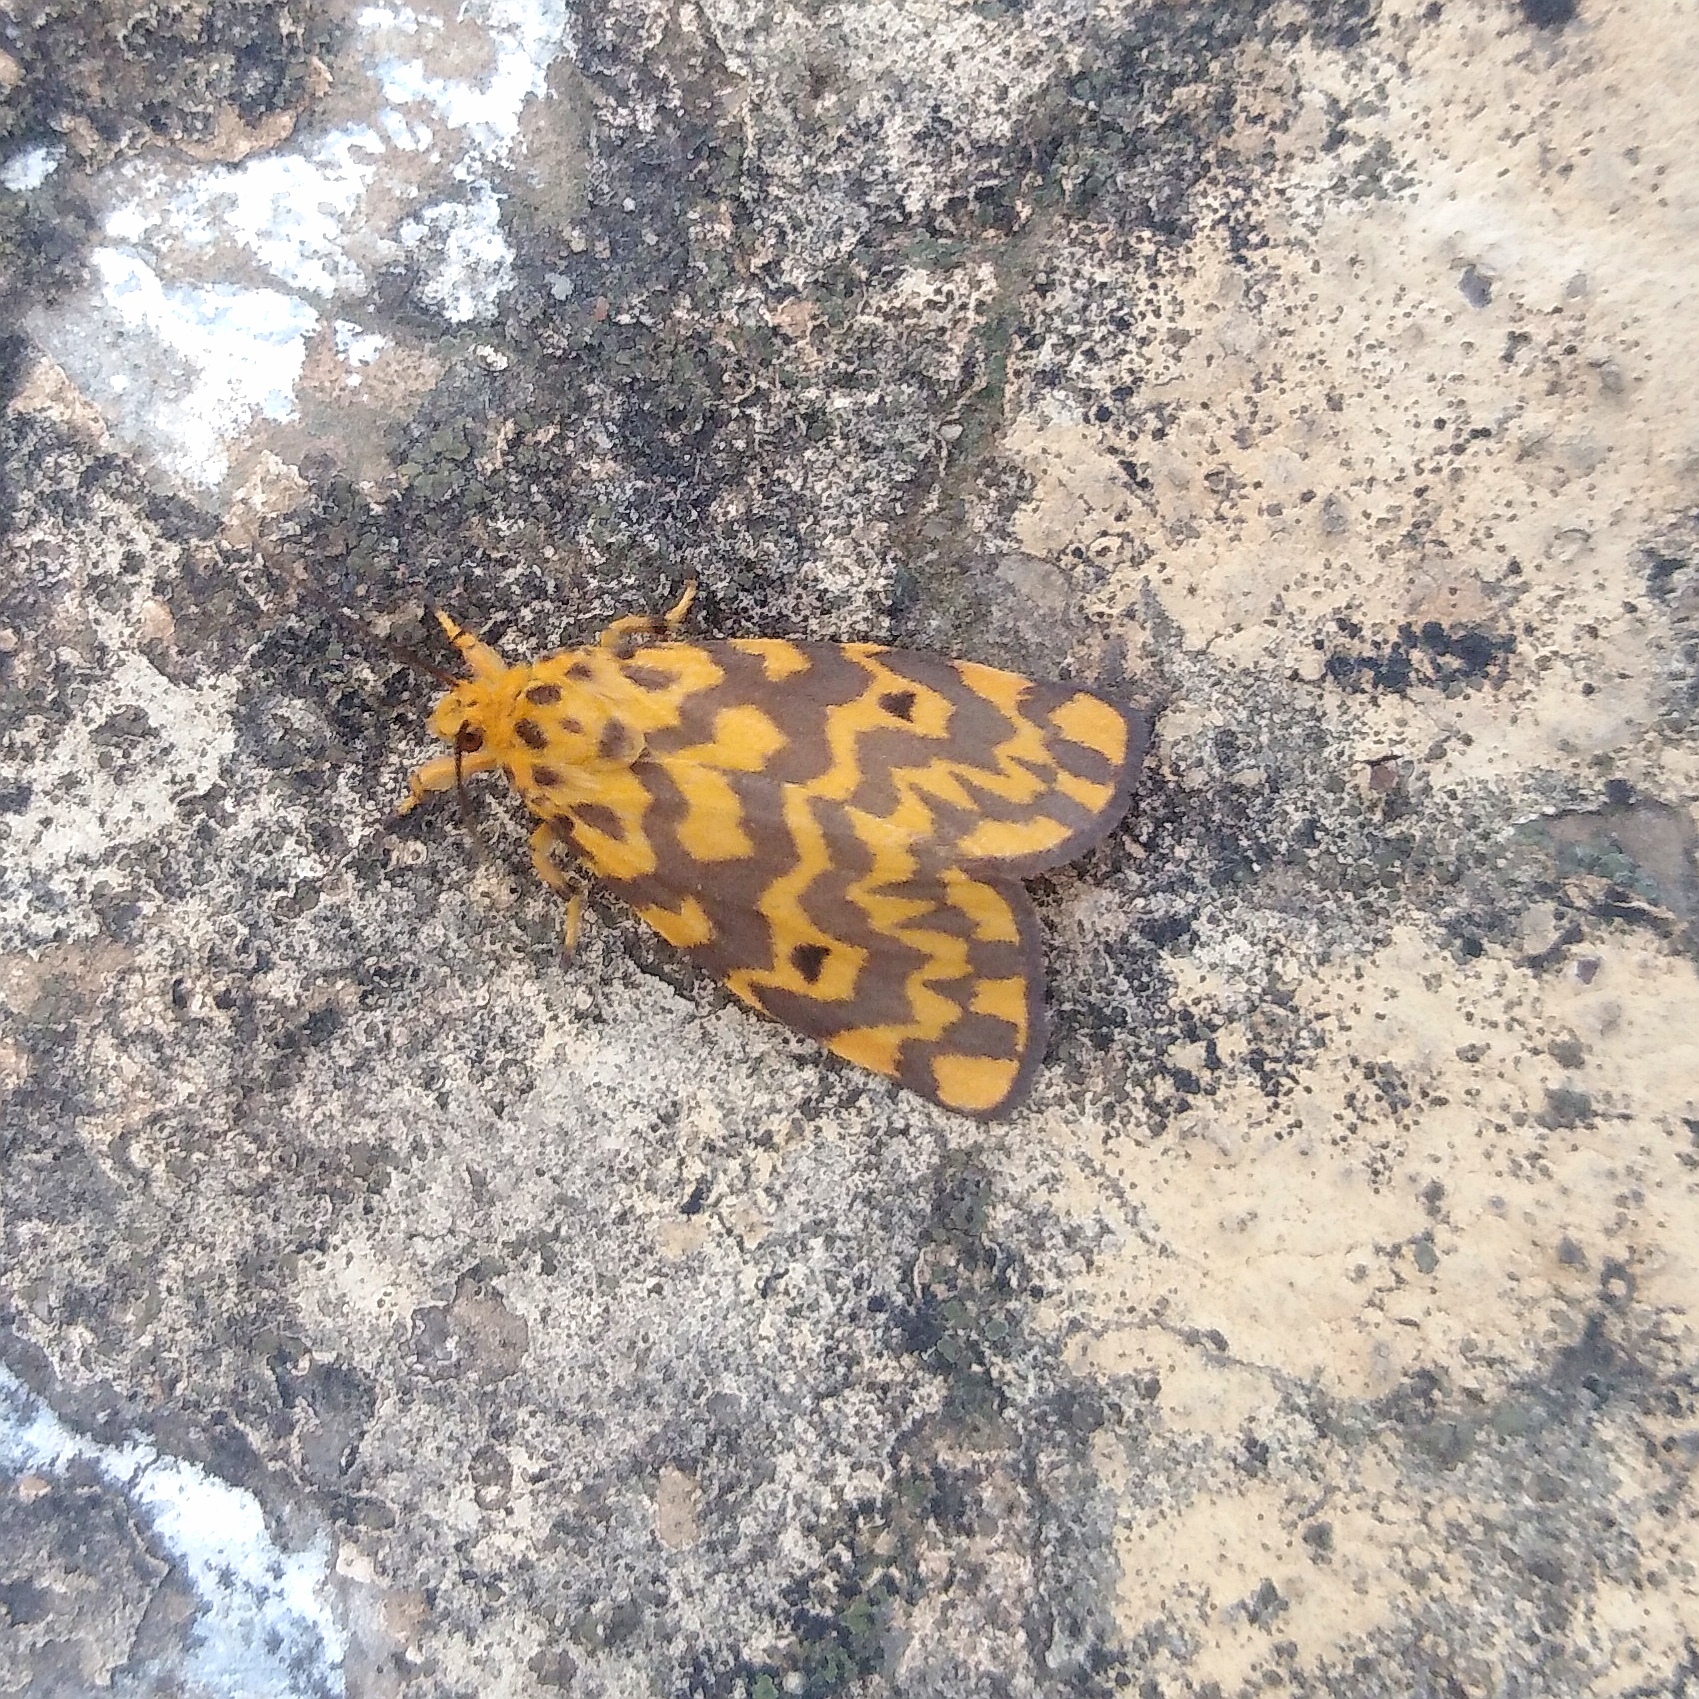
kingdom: Animalia
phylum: Arthropoda
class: Insecta
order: Lepidoptera
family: Erebidae
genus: Nepita
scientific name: Nepita conferta
